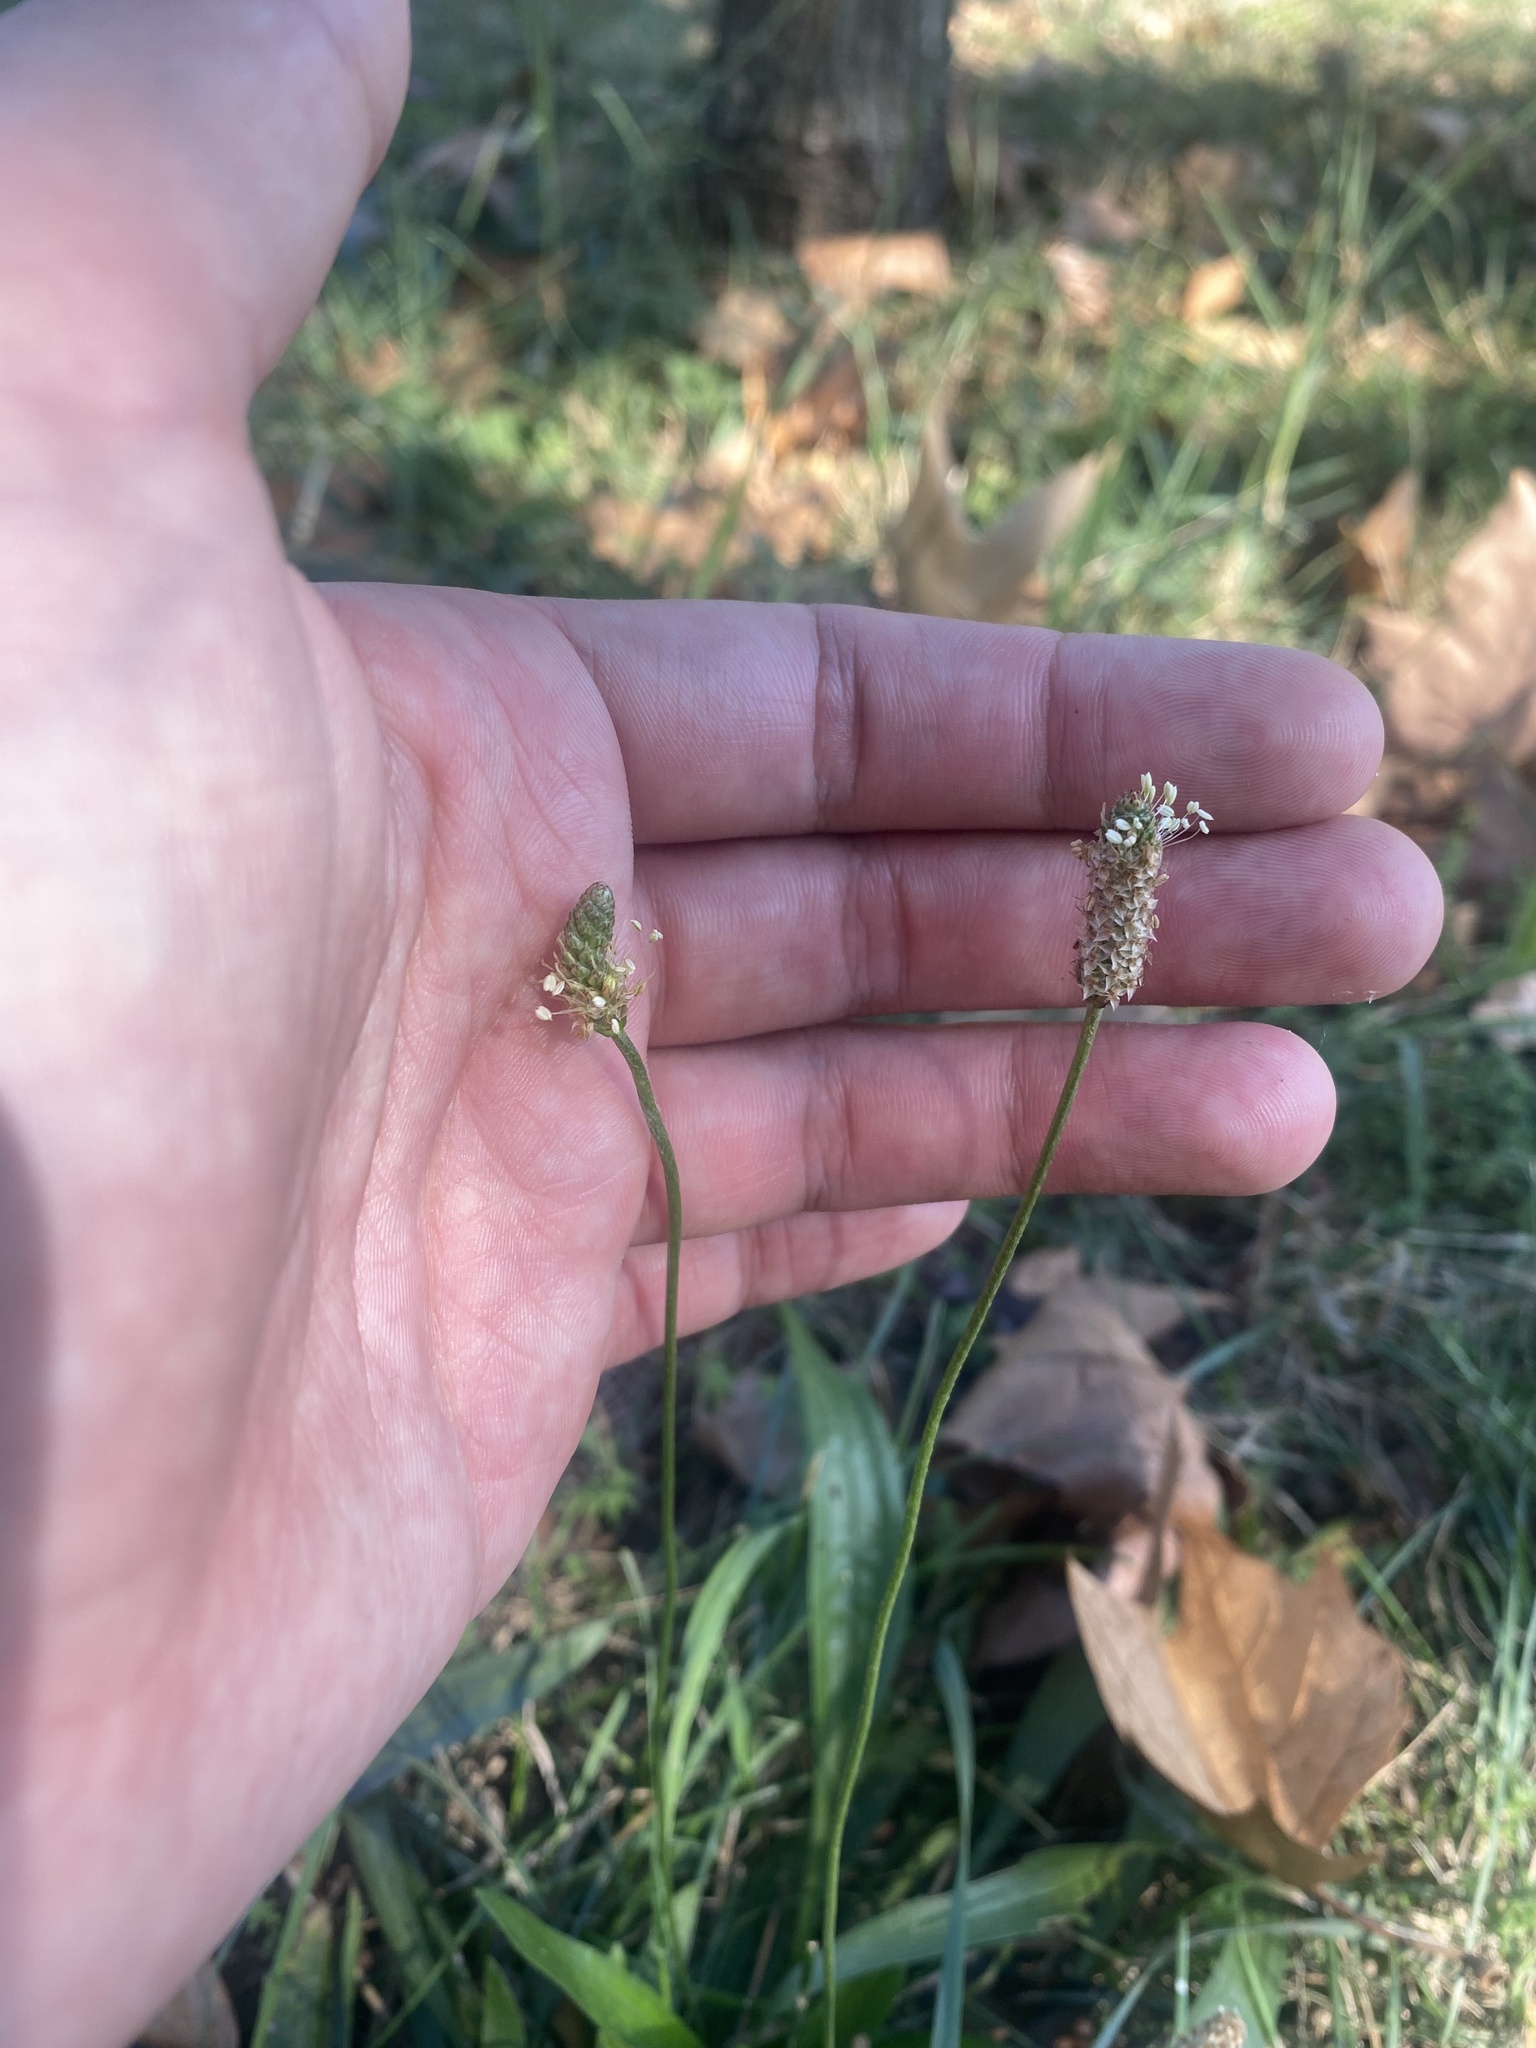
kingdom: Plantae
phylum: Tracheophyta
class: Magnoliopsida
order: Lamiales
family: Plantaginaceae
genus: Plantago
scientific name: Plantago lanceolata
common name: Ribwort plantain
